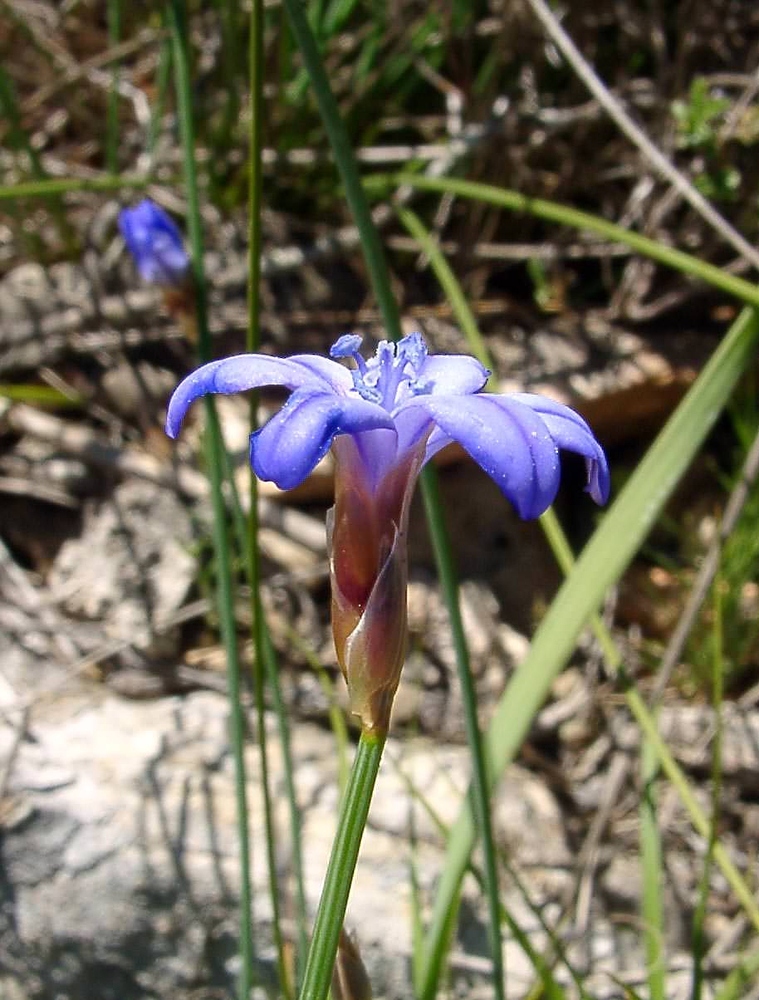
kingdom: Plantae
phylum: Tracheophyta
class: Liliopsida
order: Asparagales
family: Asparagaceae
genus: Aphyllanthes
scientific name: Aphyllanthes monspeliensis
